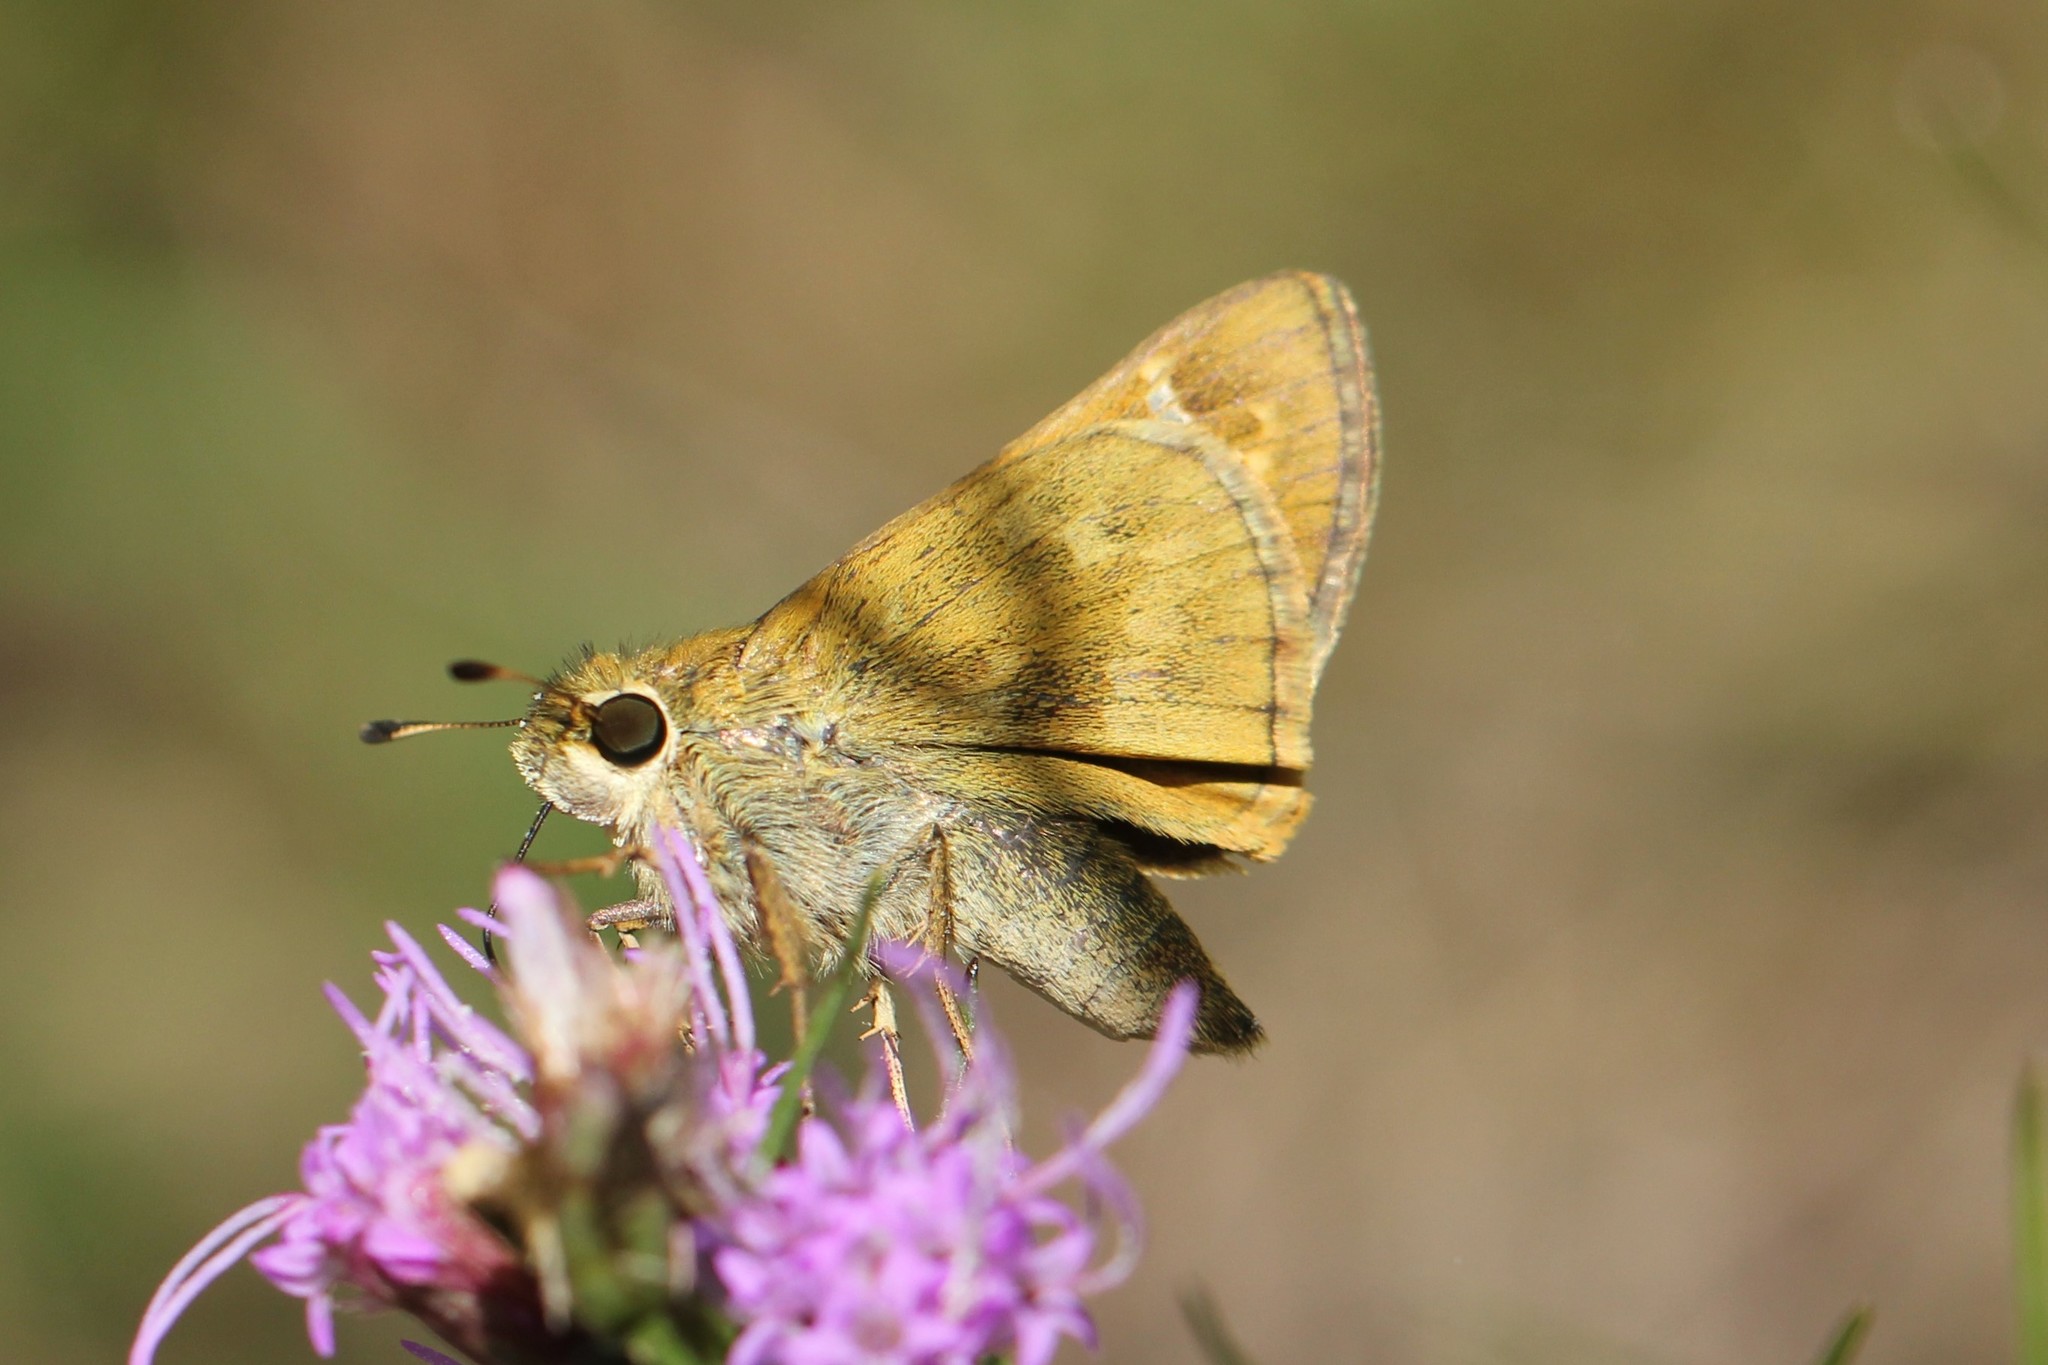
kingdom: Animalia
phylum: Arthropoda
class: Insecta
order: Lepidoptera
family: Hesperiidae
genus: Atalopedes
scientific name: Atalopedes
